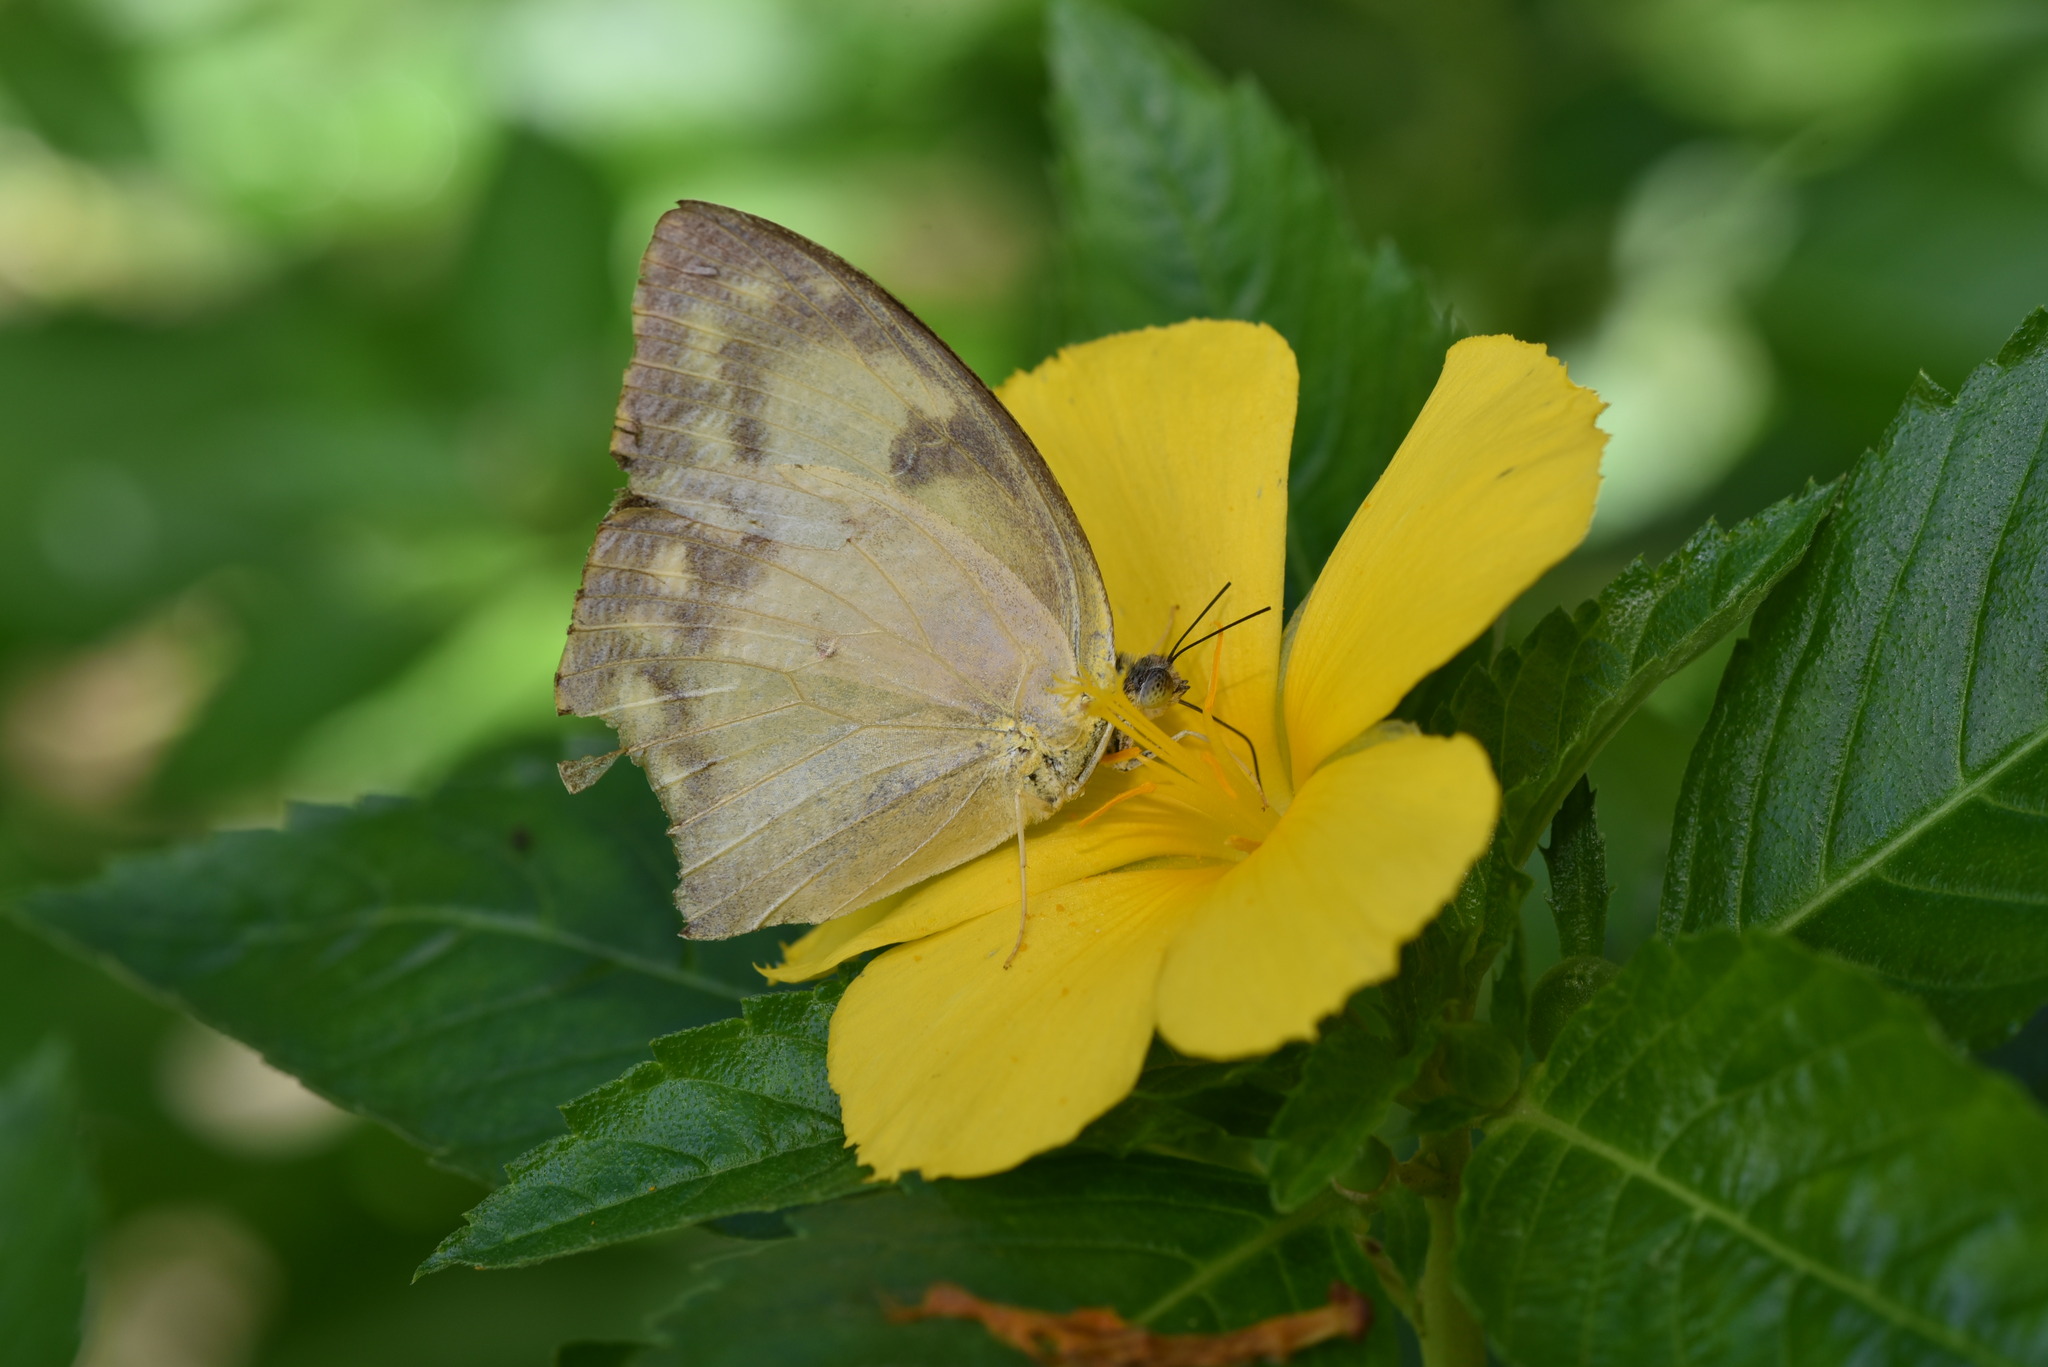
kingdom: Animalia
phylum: Arthropoda
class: Insecta
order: Lepidoptera
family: Pieridae
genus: Catopsilia
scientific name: Catopsilia pomona
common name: Common emigrant
